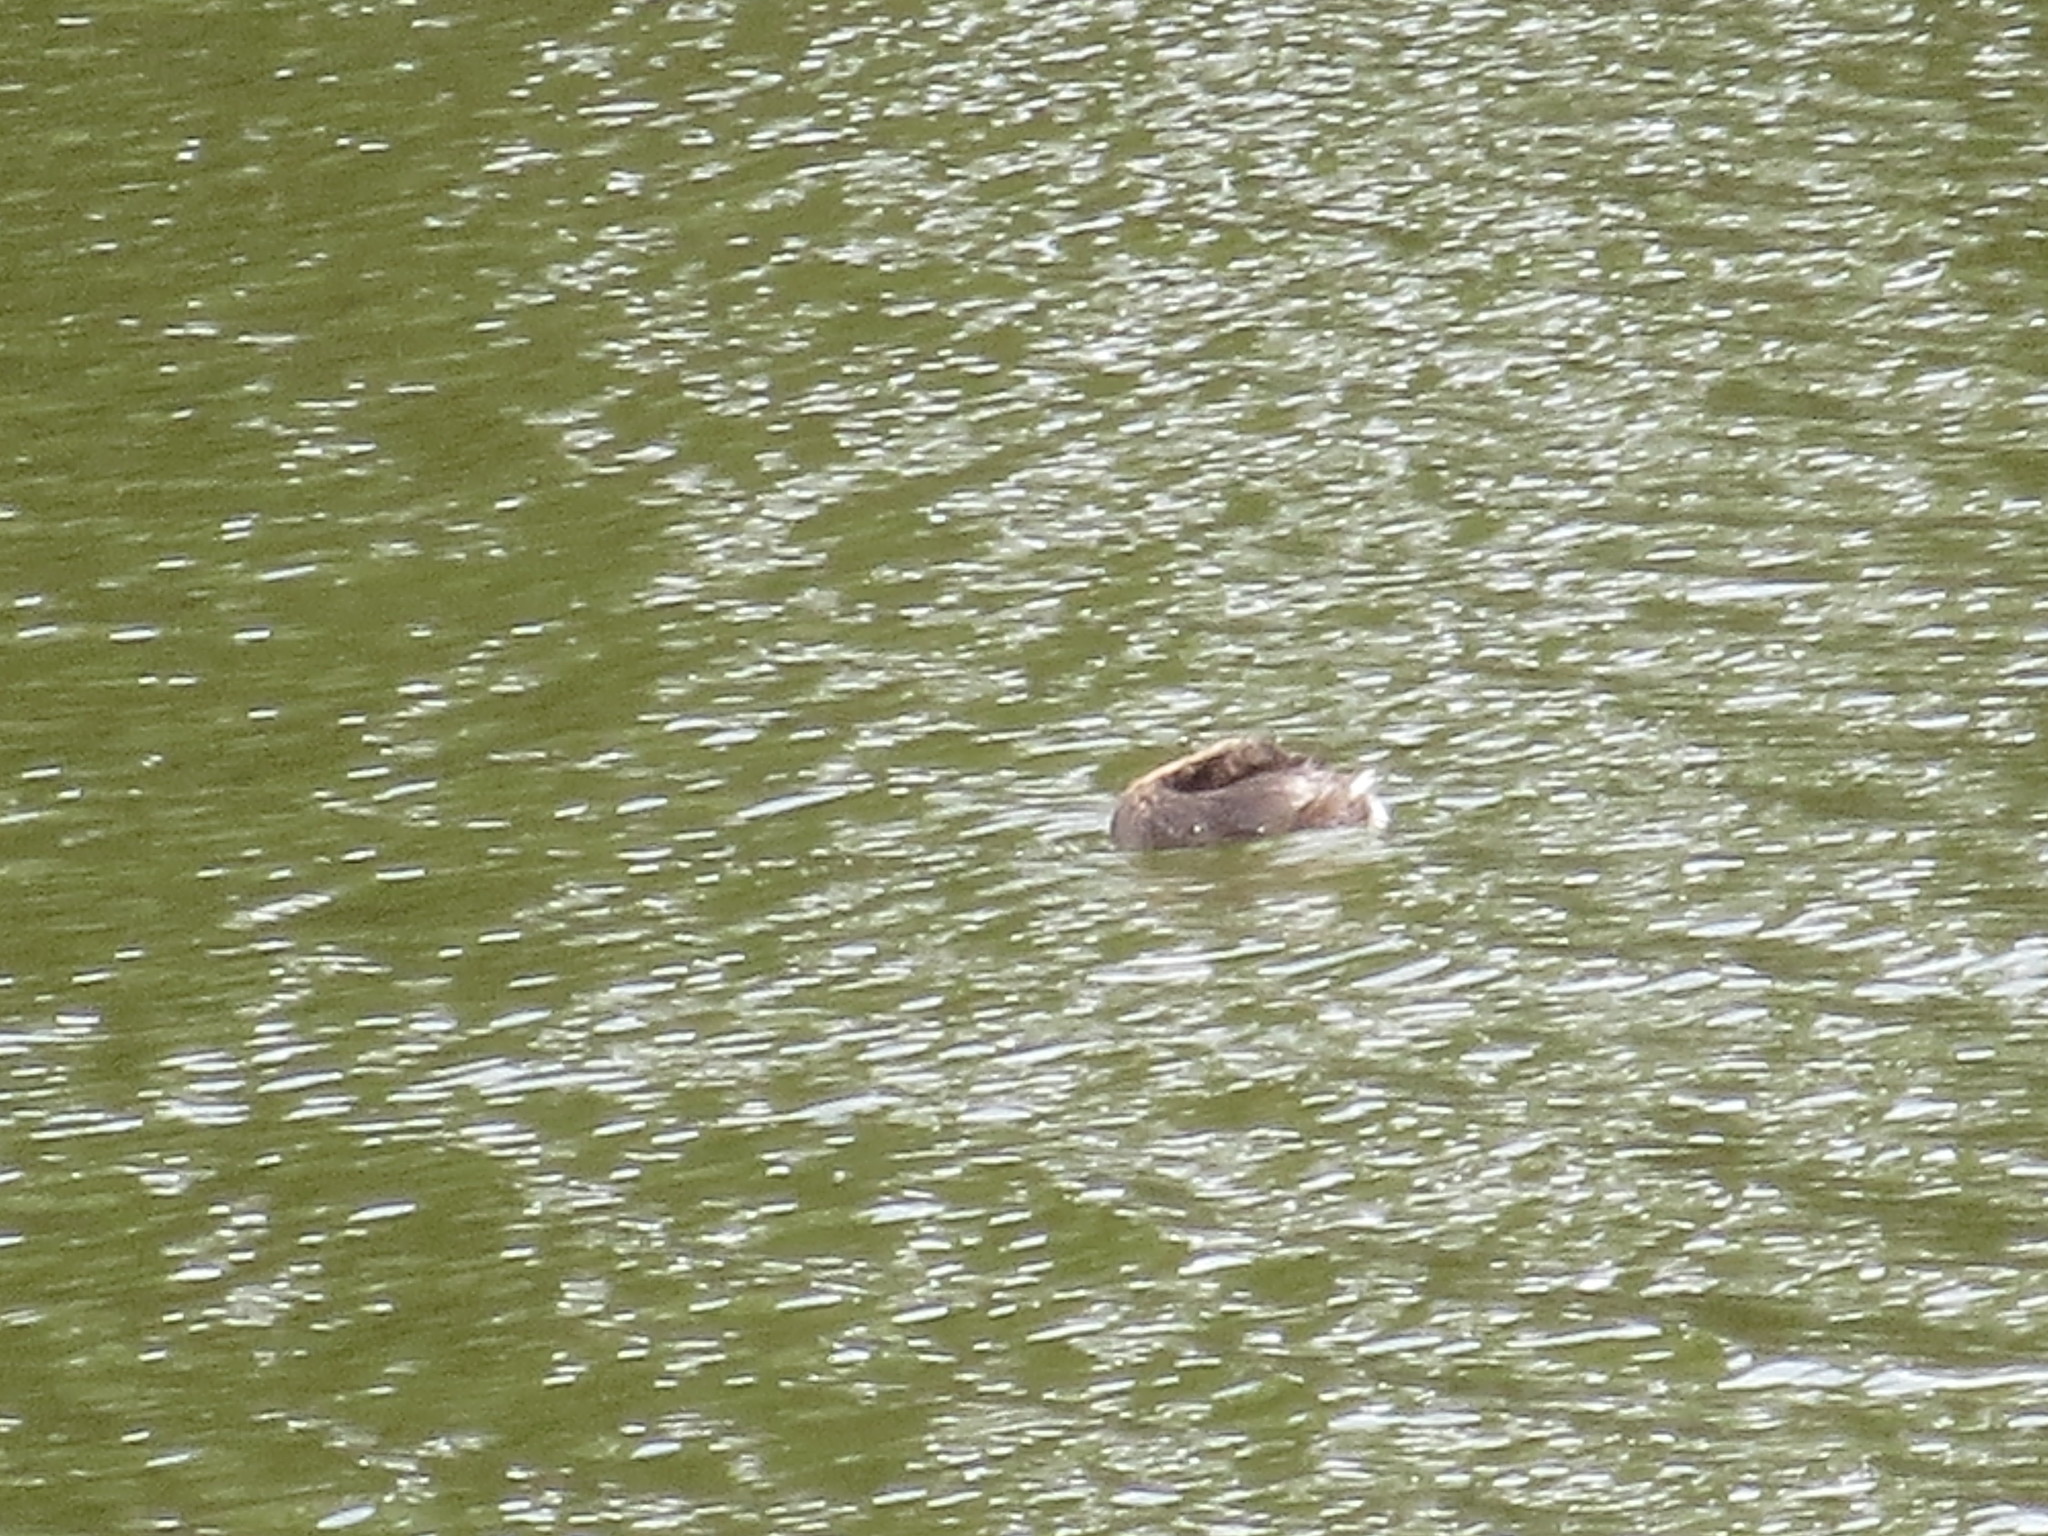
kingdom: Animalia
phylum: Chordata
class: Aves
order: Podicipediformes
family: Podicipedidae
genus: Podilymbus
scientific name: Podilymbus podiceps
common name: Pied-billed grebe
